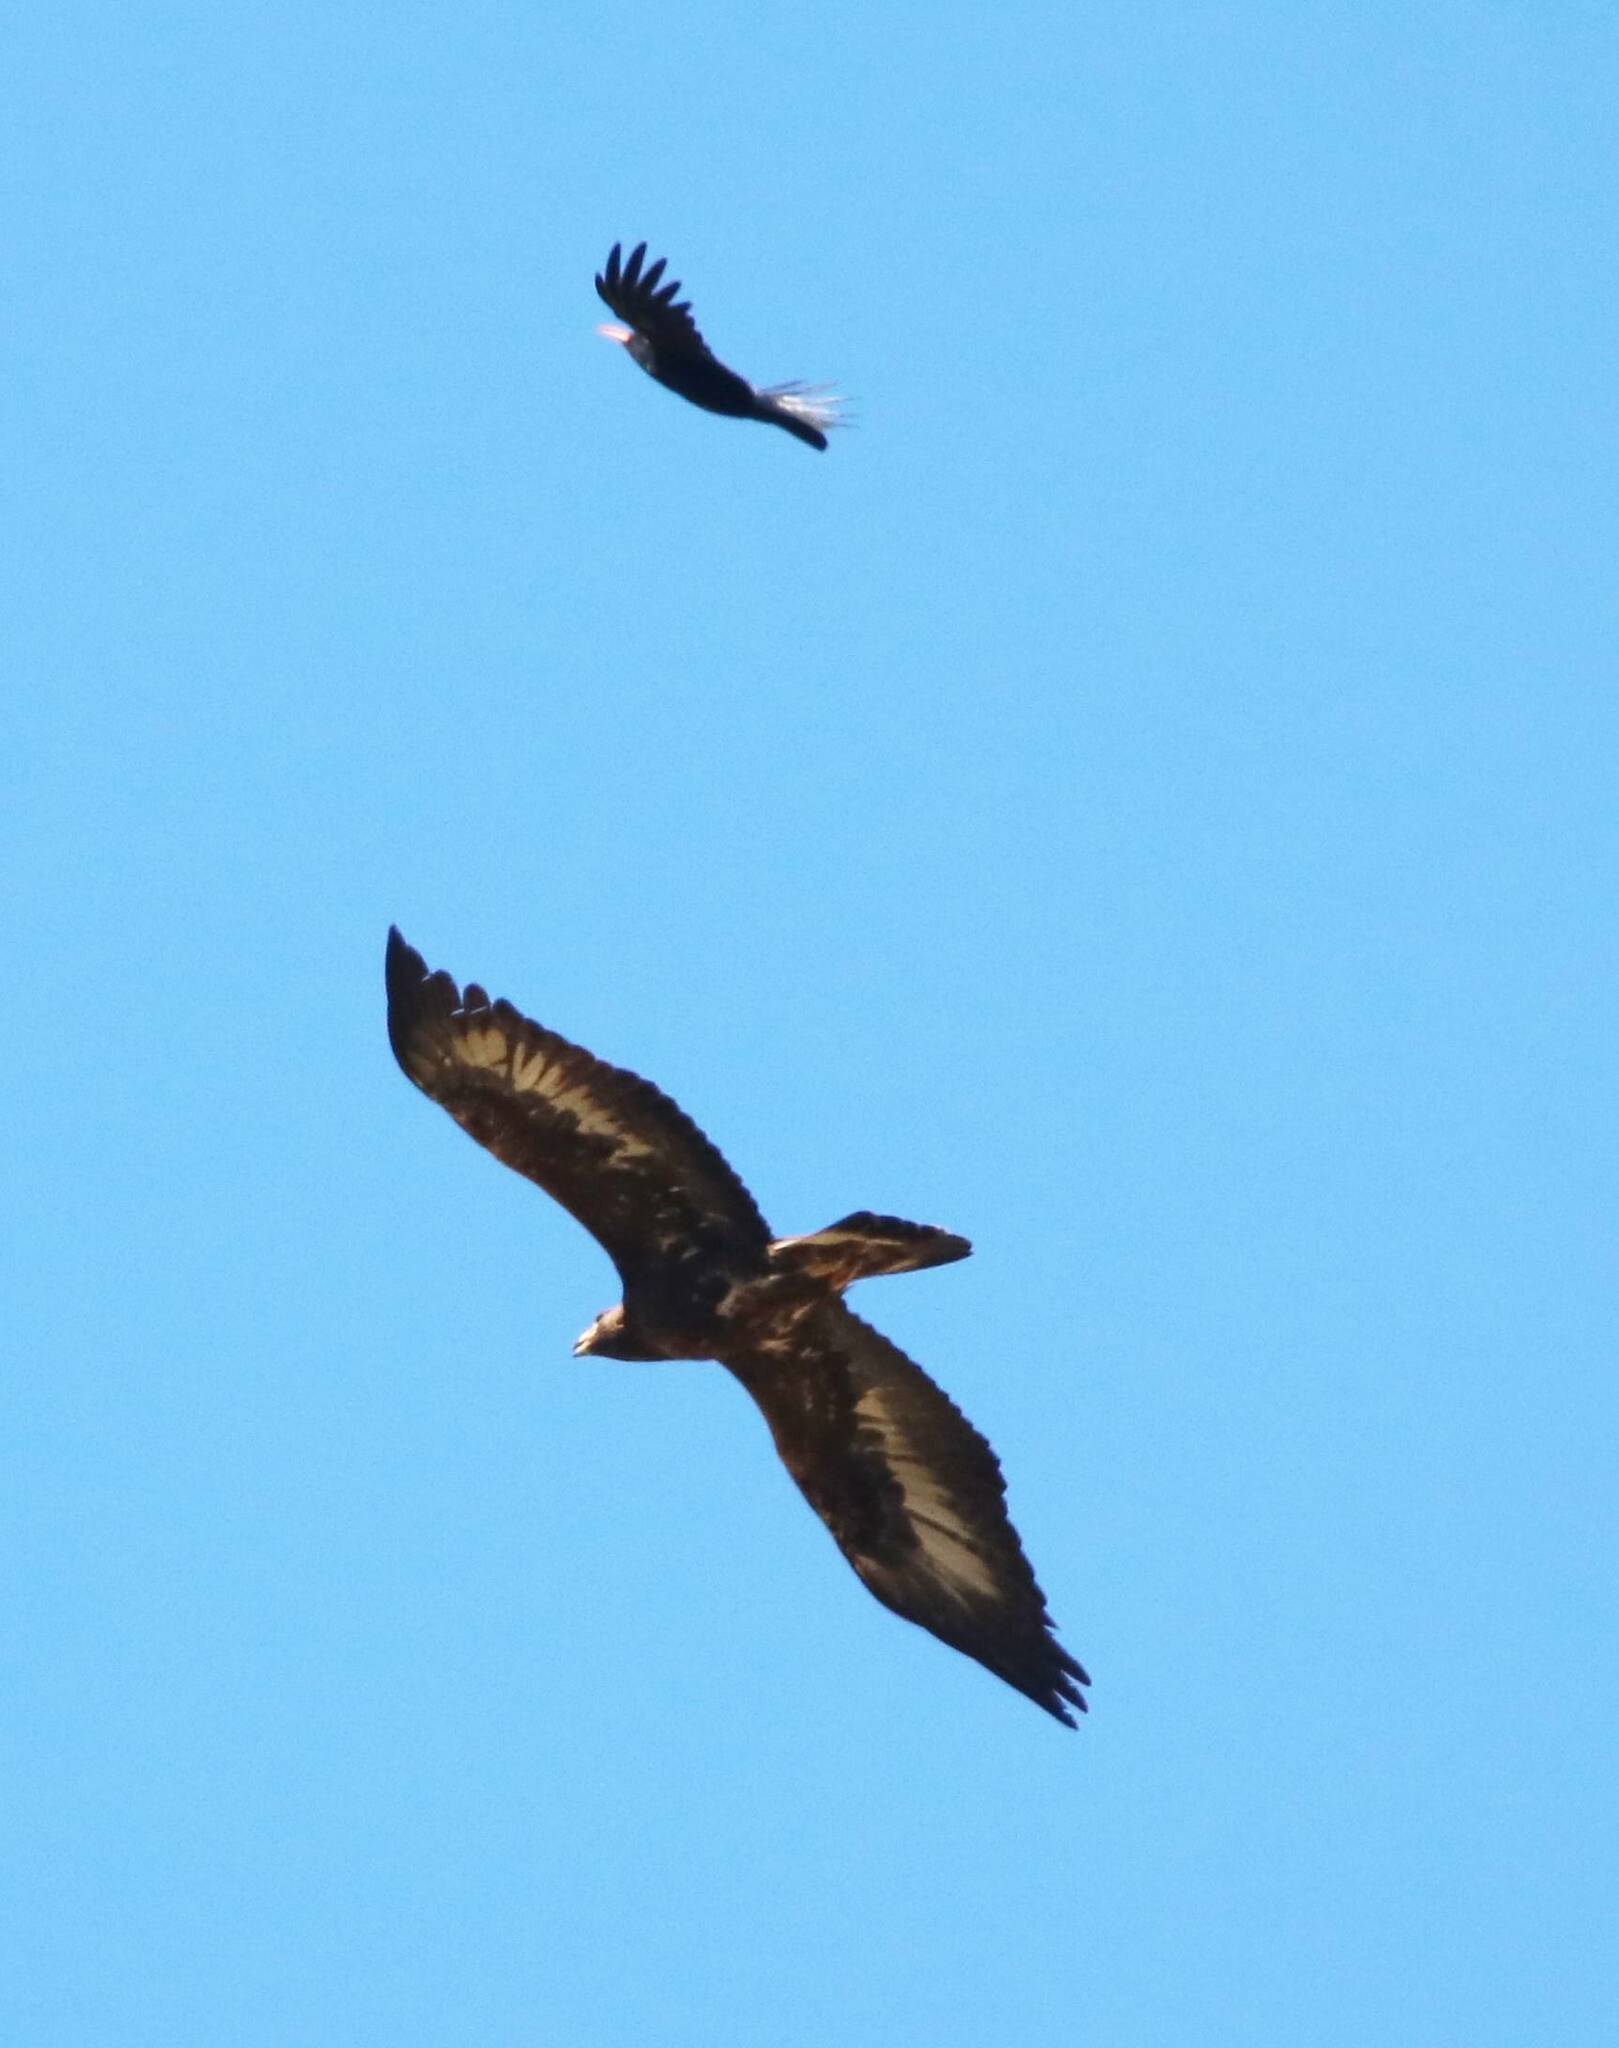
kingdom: Animalia
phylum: Chordata
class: Aves
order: Accipitriformes
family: Accipitridae
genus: Aquila
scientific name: Aquila chrysaetos
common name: Golden eagle
